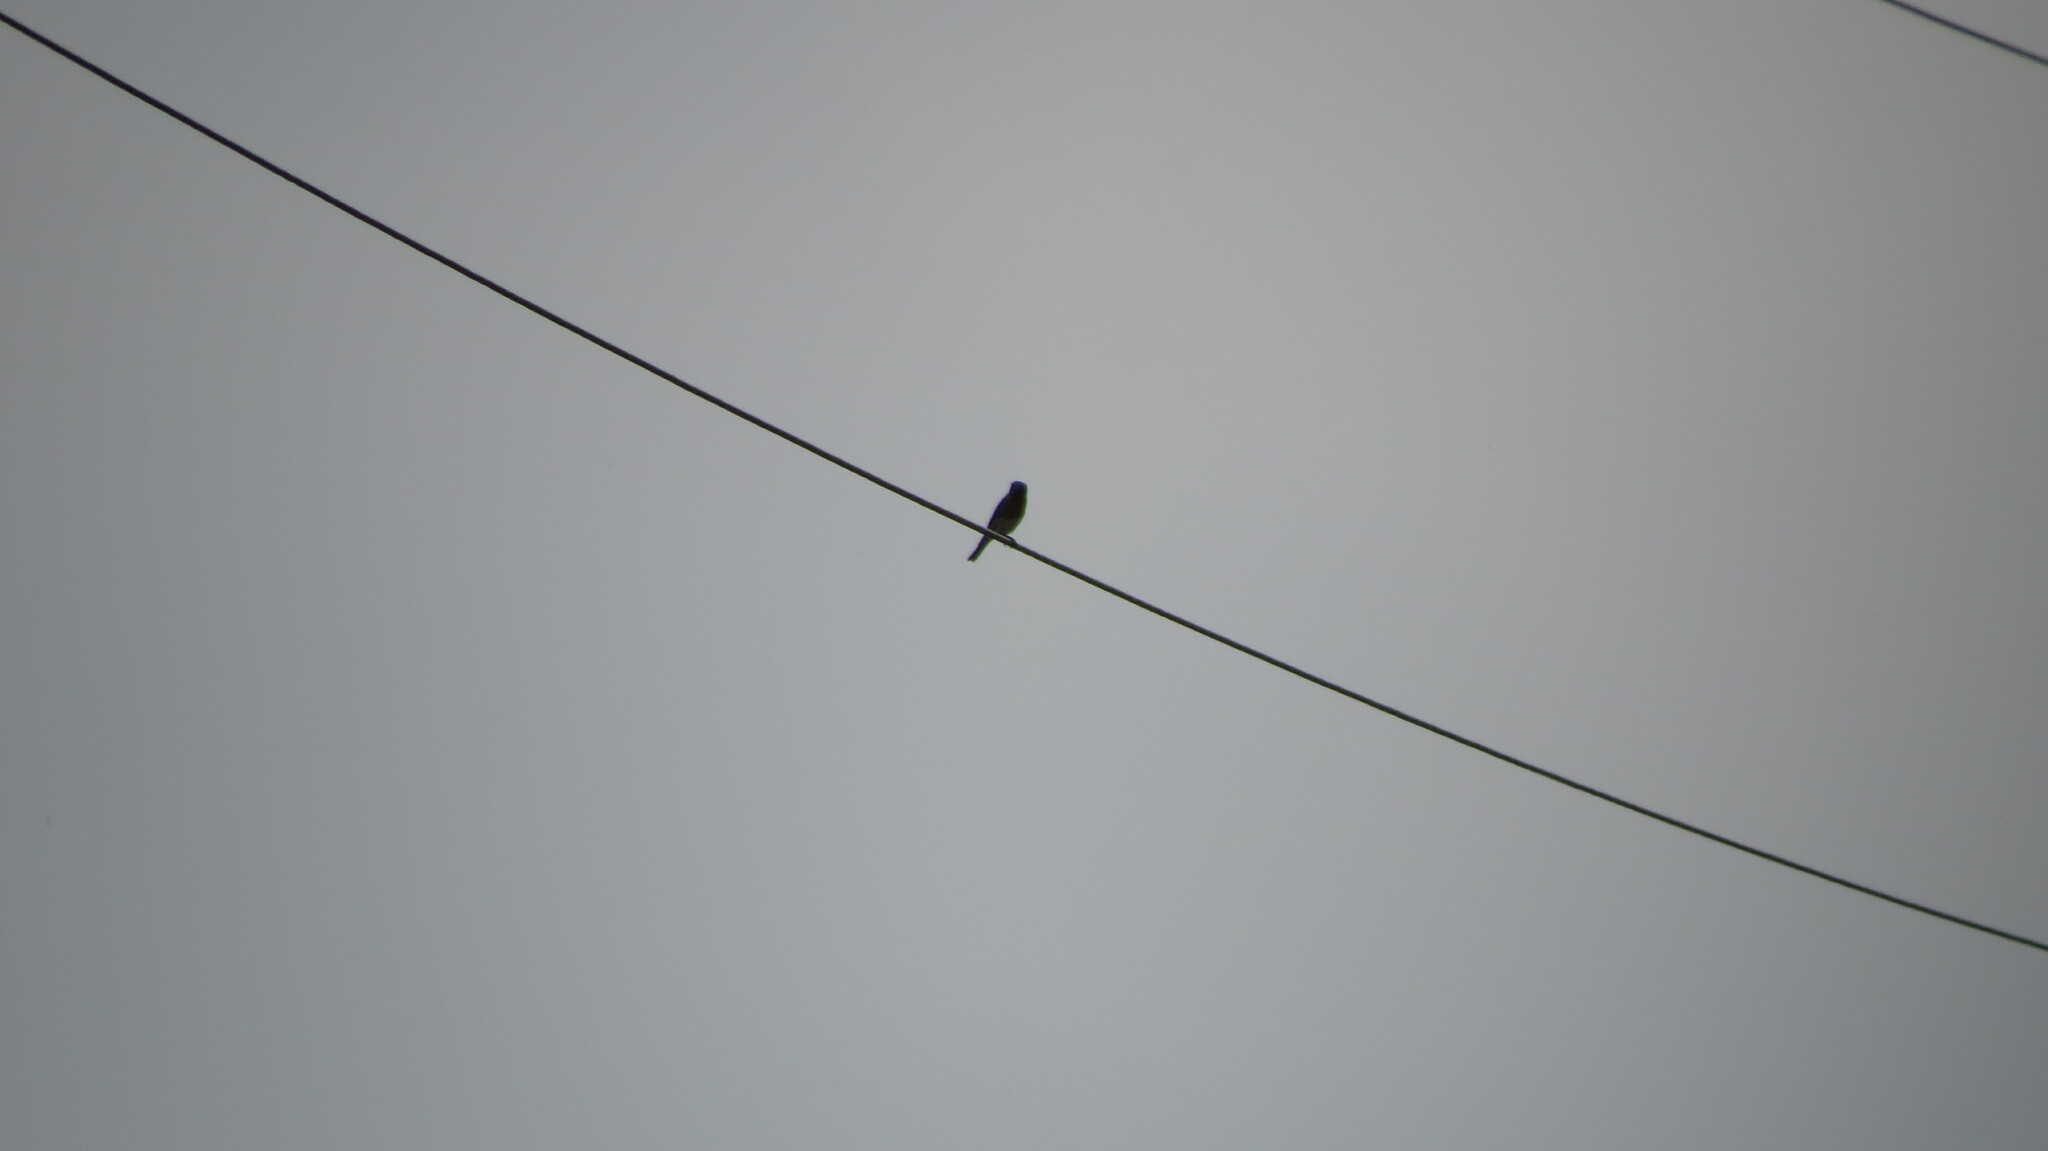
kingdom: Animalia
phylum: Chordata
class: Aves
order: Passeriformes
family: Turdidae
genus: Sialia
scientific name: Sialia sialis
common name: Eastern bluebird
